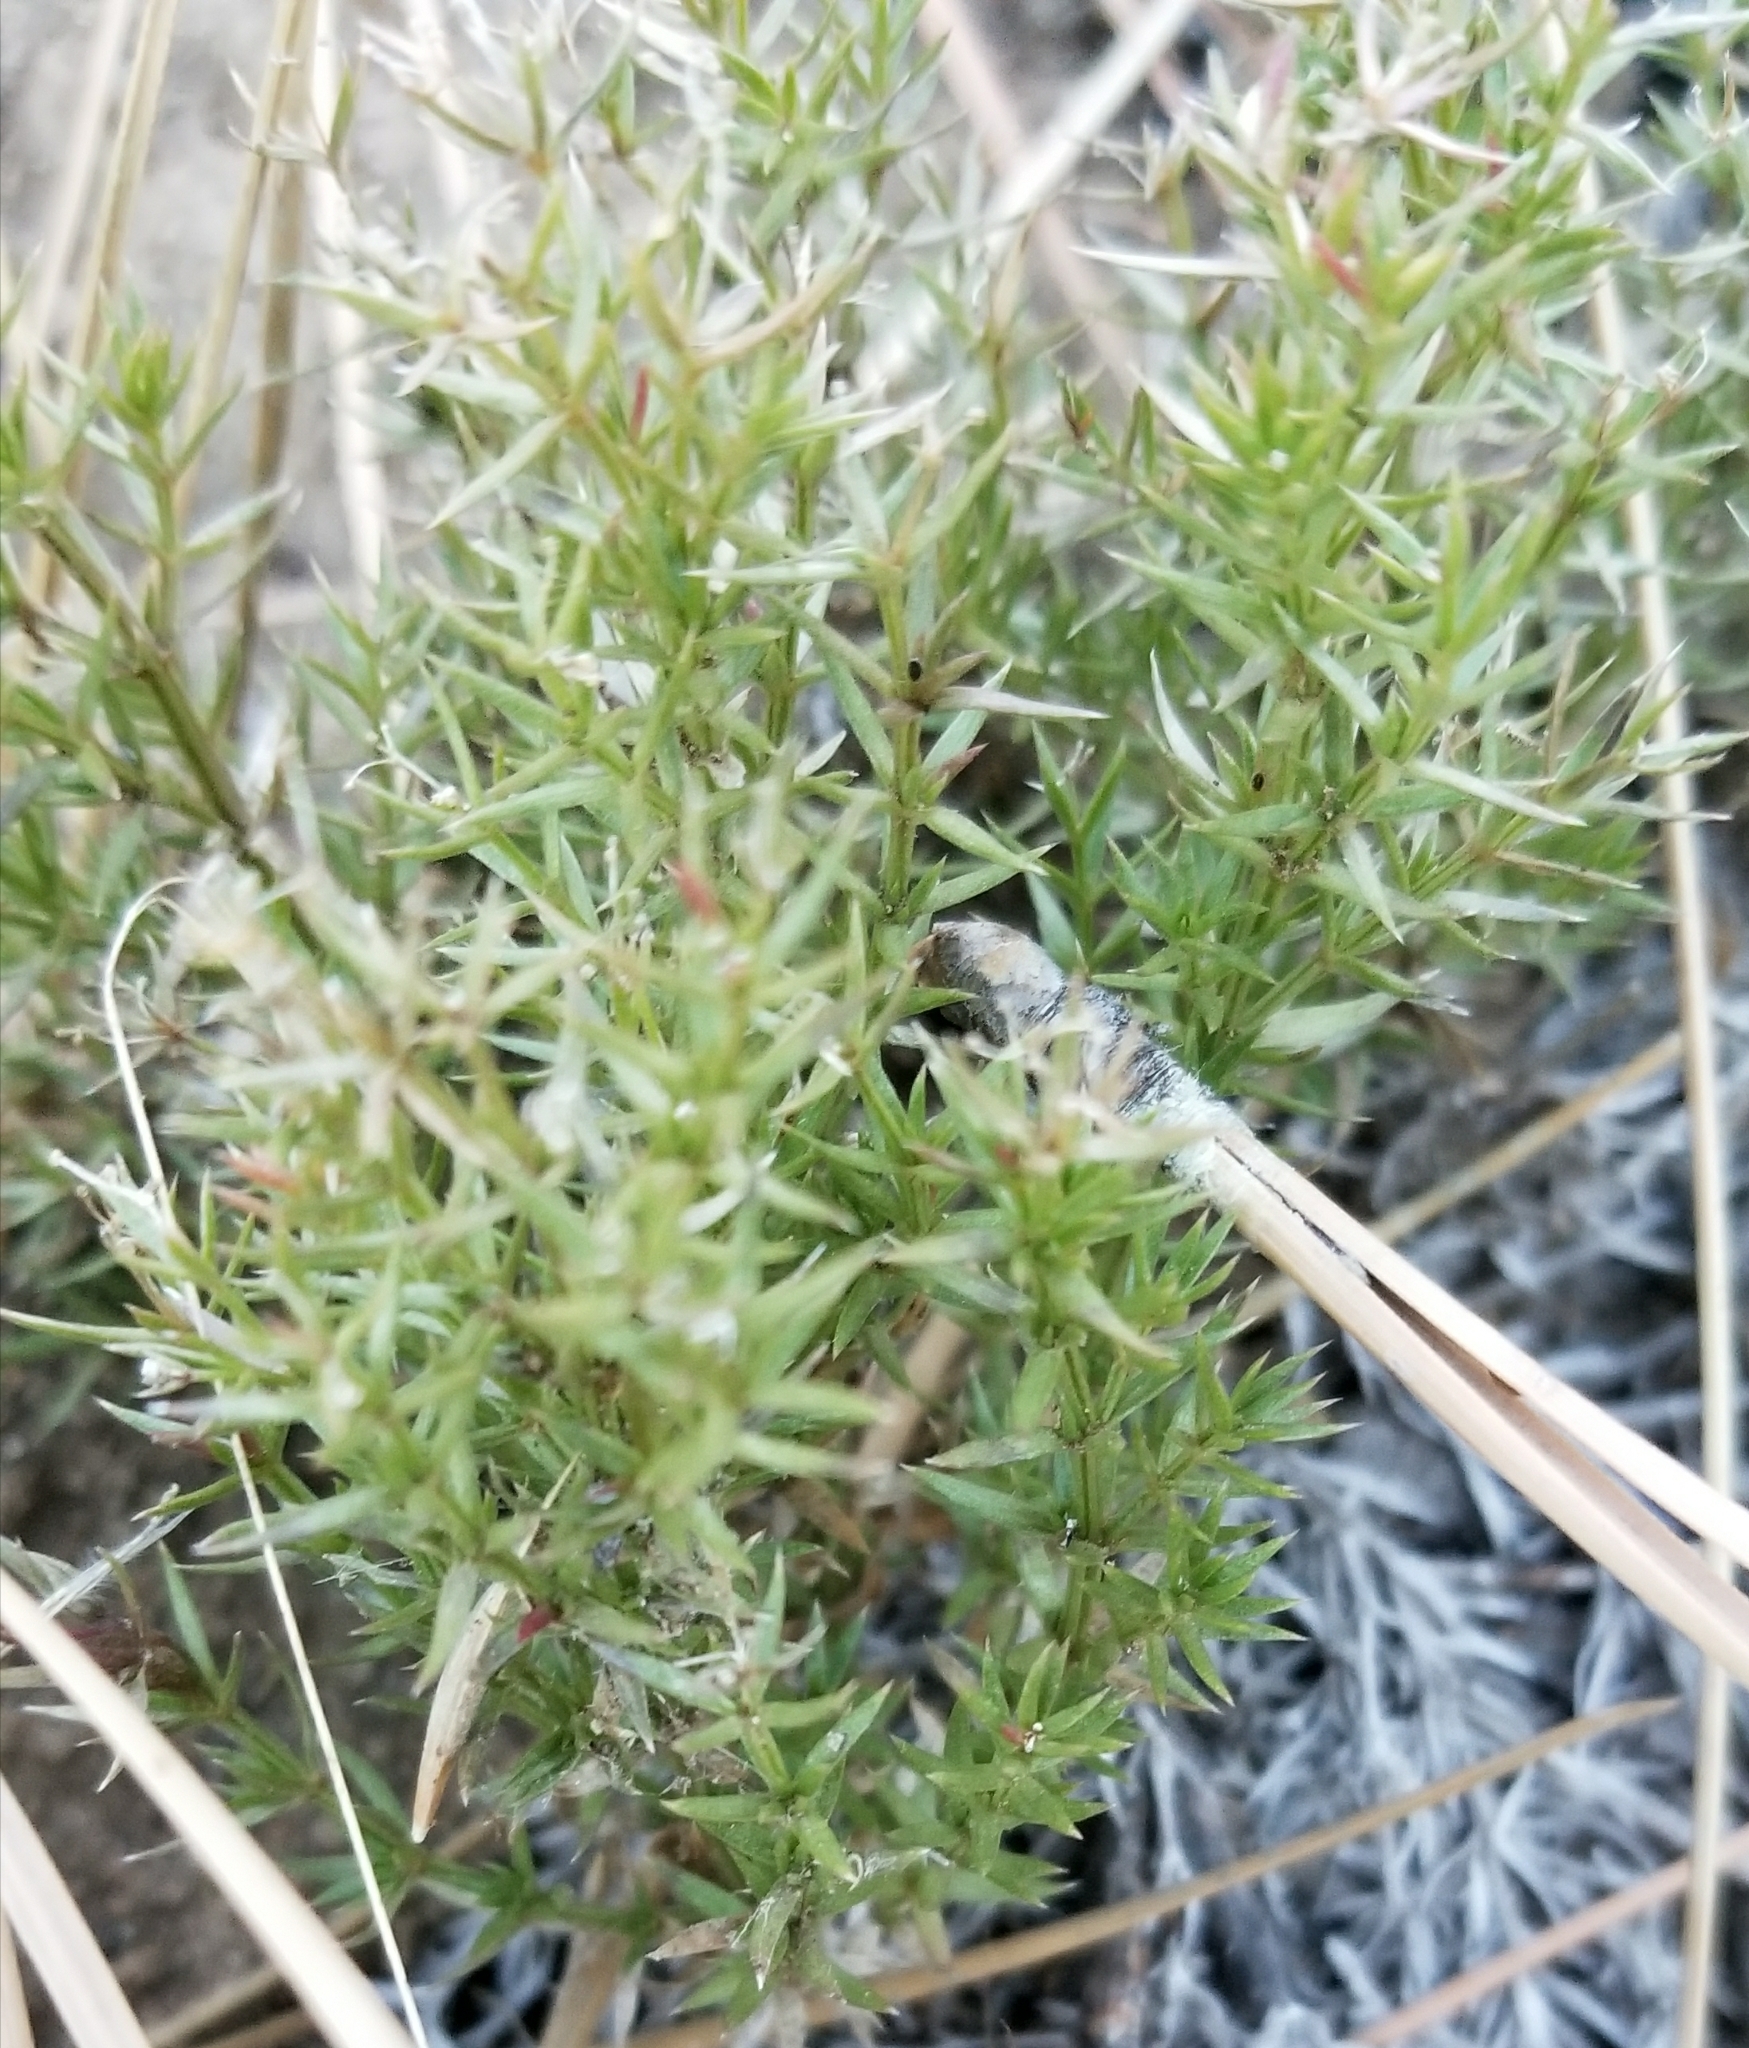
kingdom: Plantae
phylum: Tracheophyta
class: Magnoliopsida
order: Gentianales
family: Rubiaceae
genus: Galium
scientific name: Galium andrewsii
